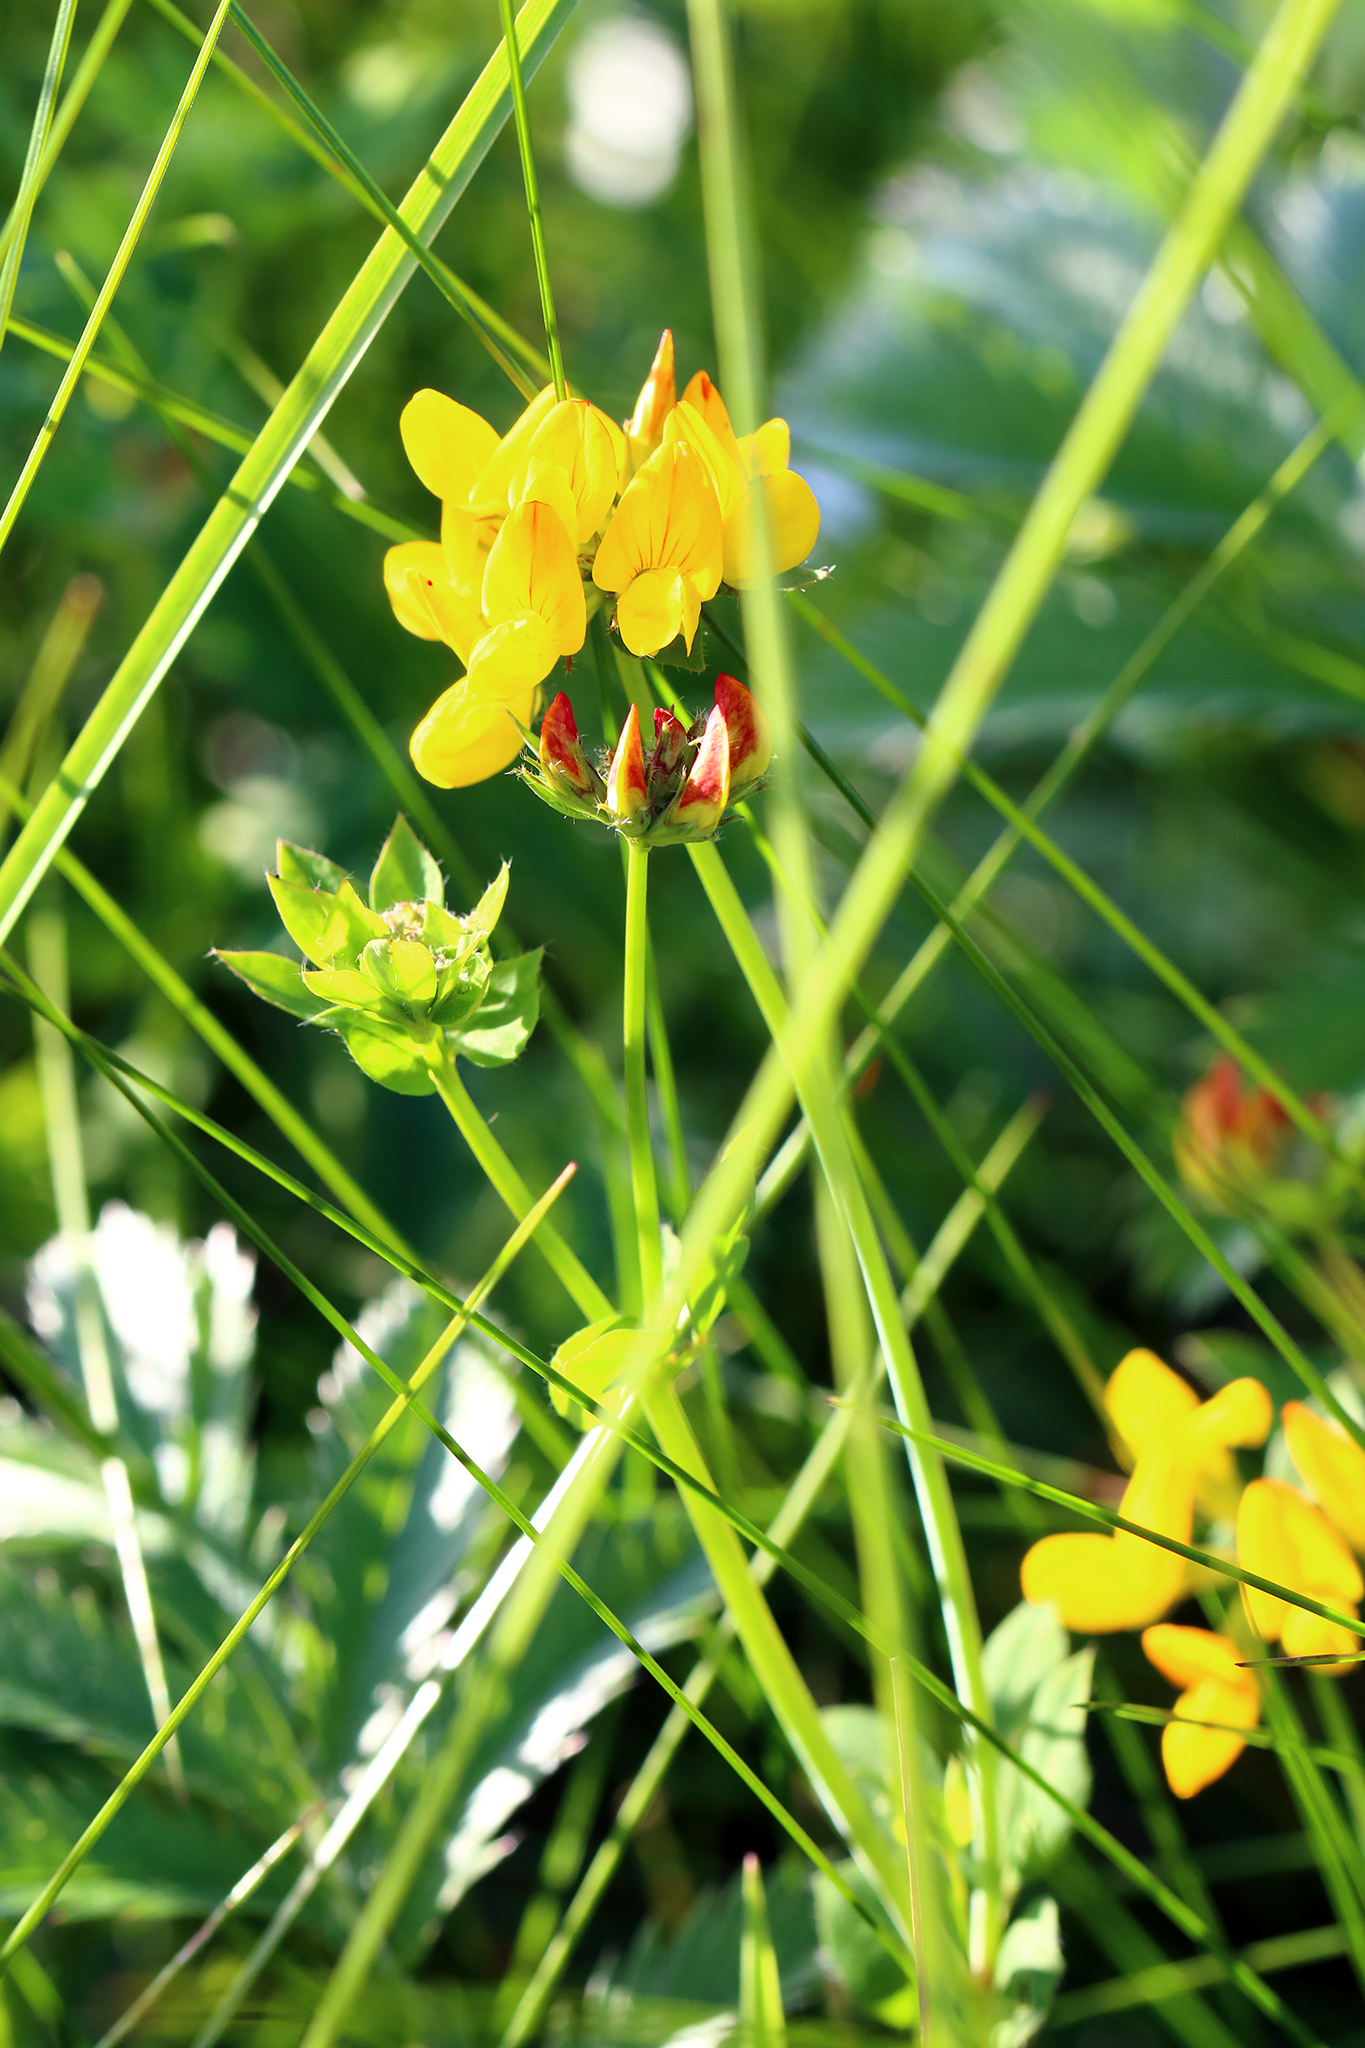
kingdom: Plantae
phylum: Tracheophyta
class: Magnoliopsida
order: Fabales
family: Fabaceae
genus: Lotus
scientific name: Lotus corniculatus
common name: Common bird's-foot-trefoil
